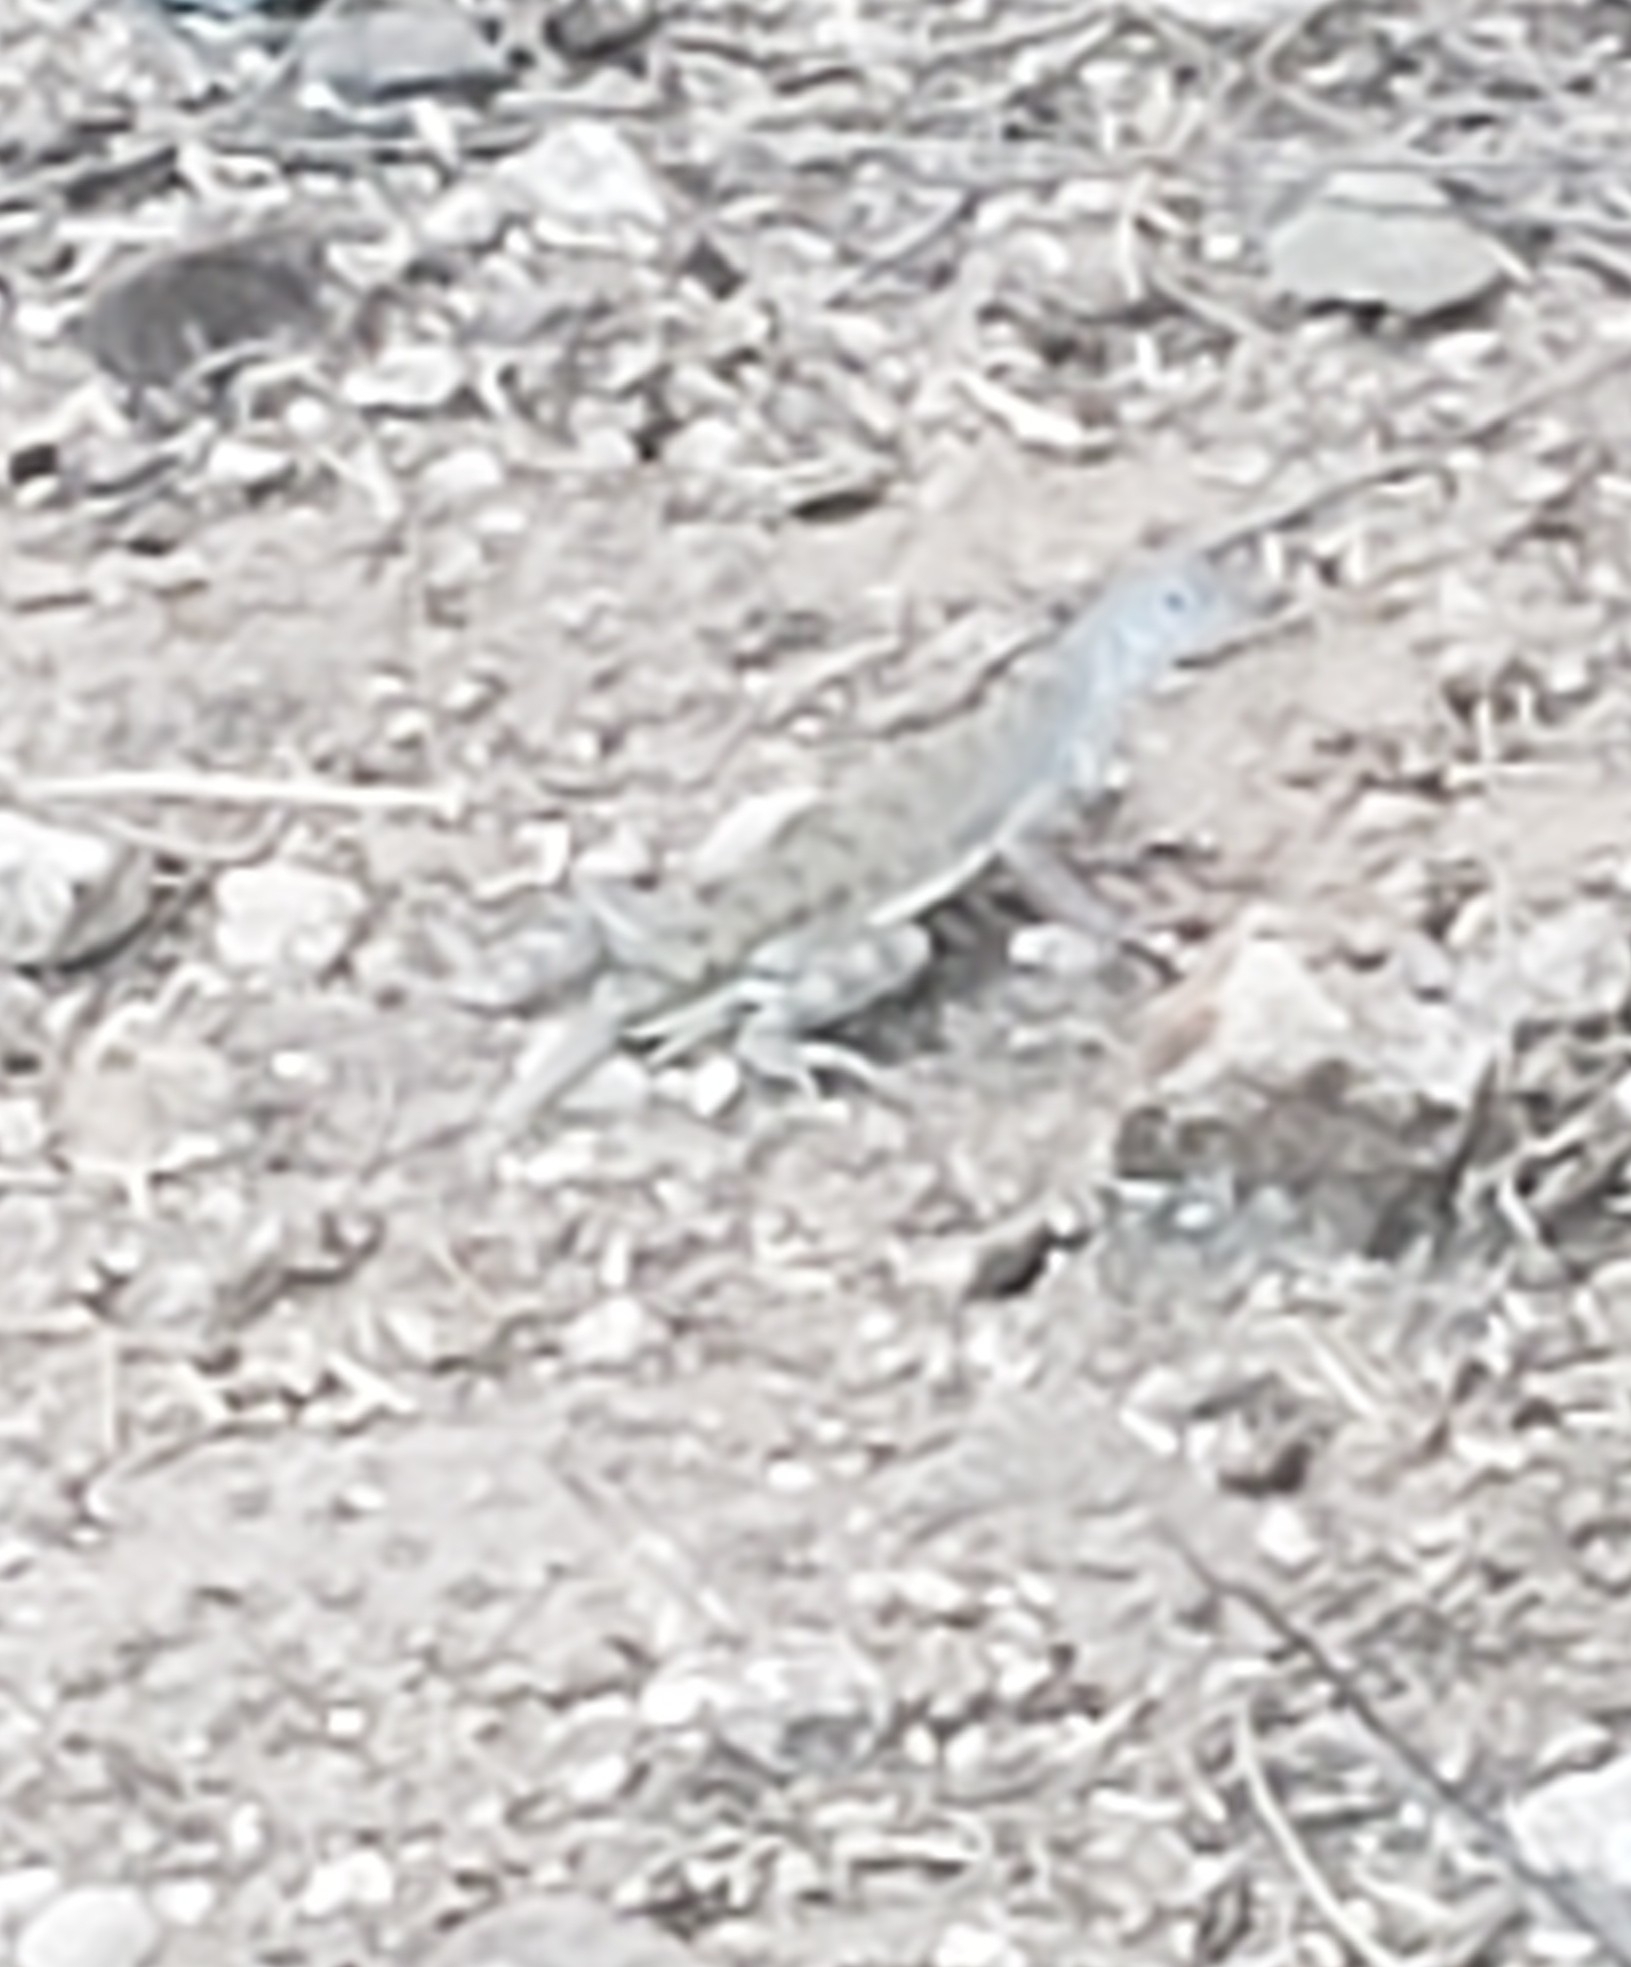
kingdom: Animalia
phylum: Chordata
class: Squamata
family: Phrynosomatidae
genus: Callisaurus
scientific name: Callisaurus draconoides
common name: Zebra-tailed lizard
